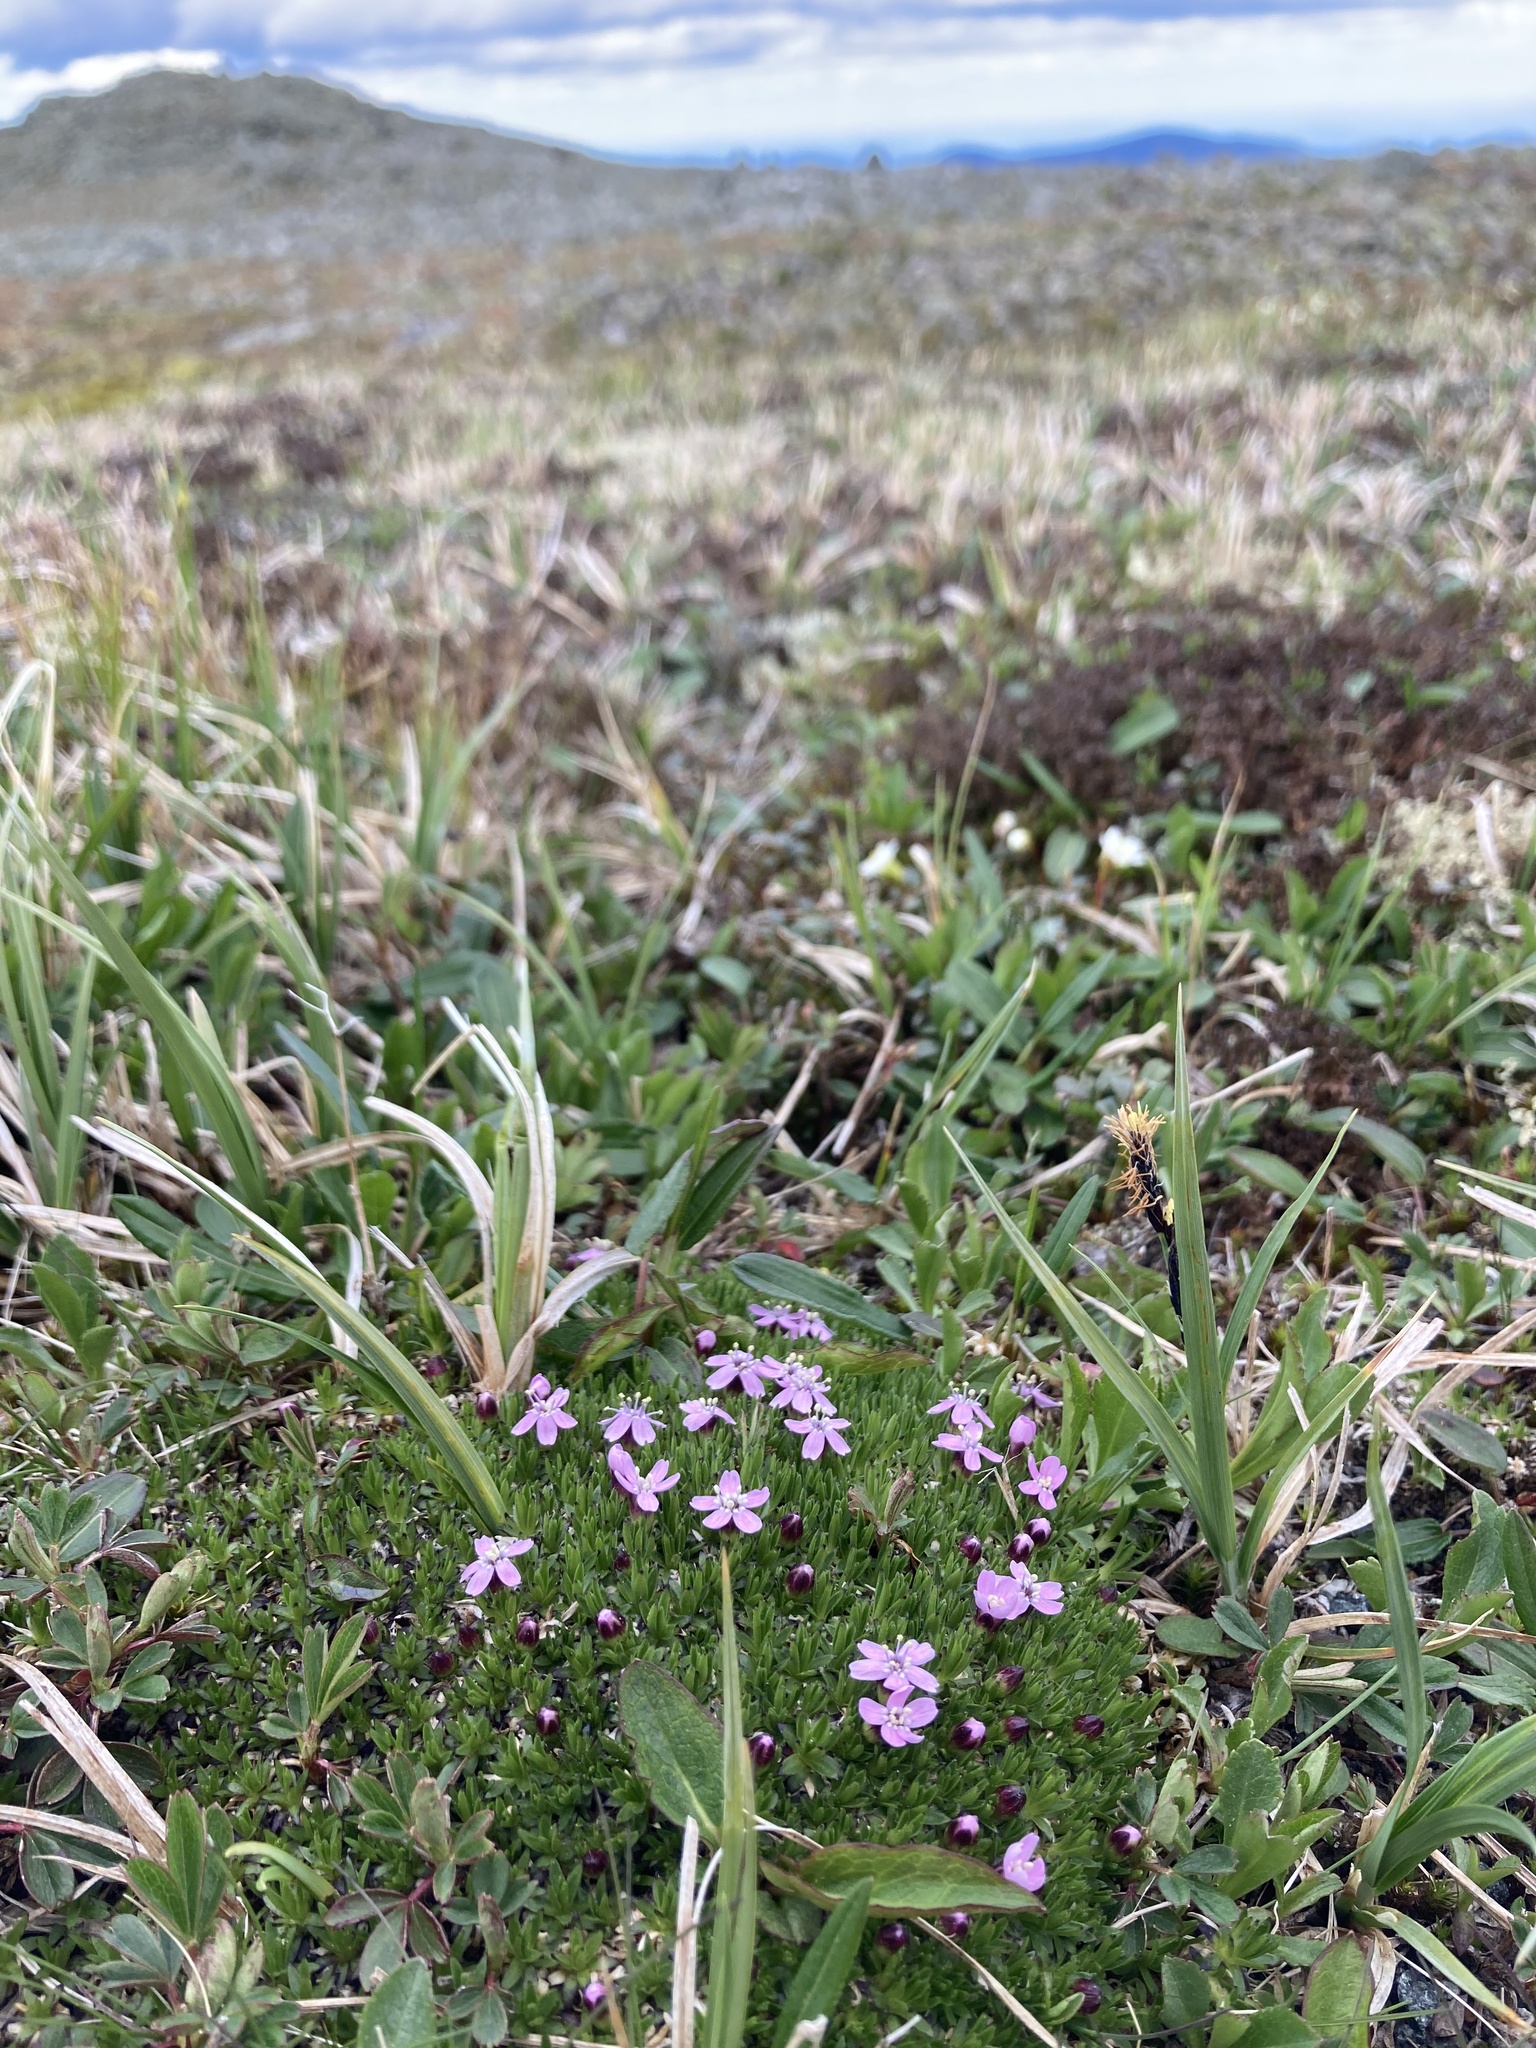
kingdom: Plantae
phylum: Tracheophyta
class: Magnoliopsida
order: Caryophyllales
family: Caryophyllaceae
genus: Silene
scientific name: Silene acaulis
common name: Moss campion
